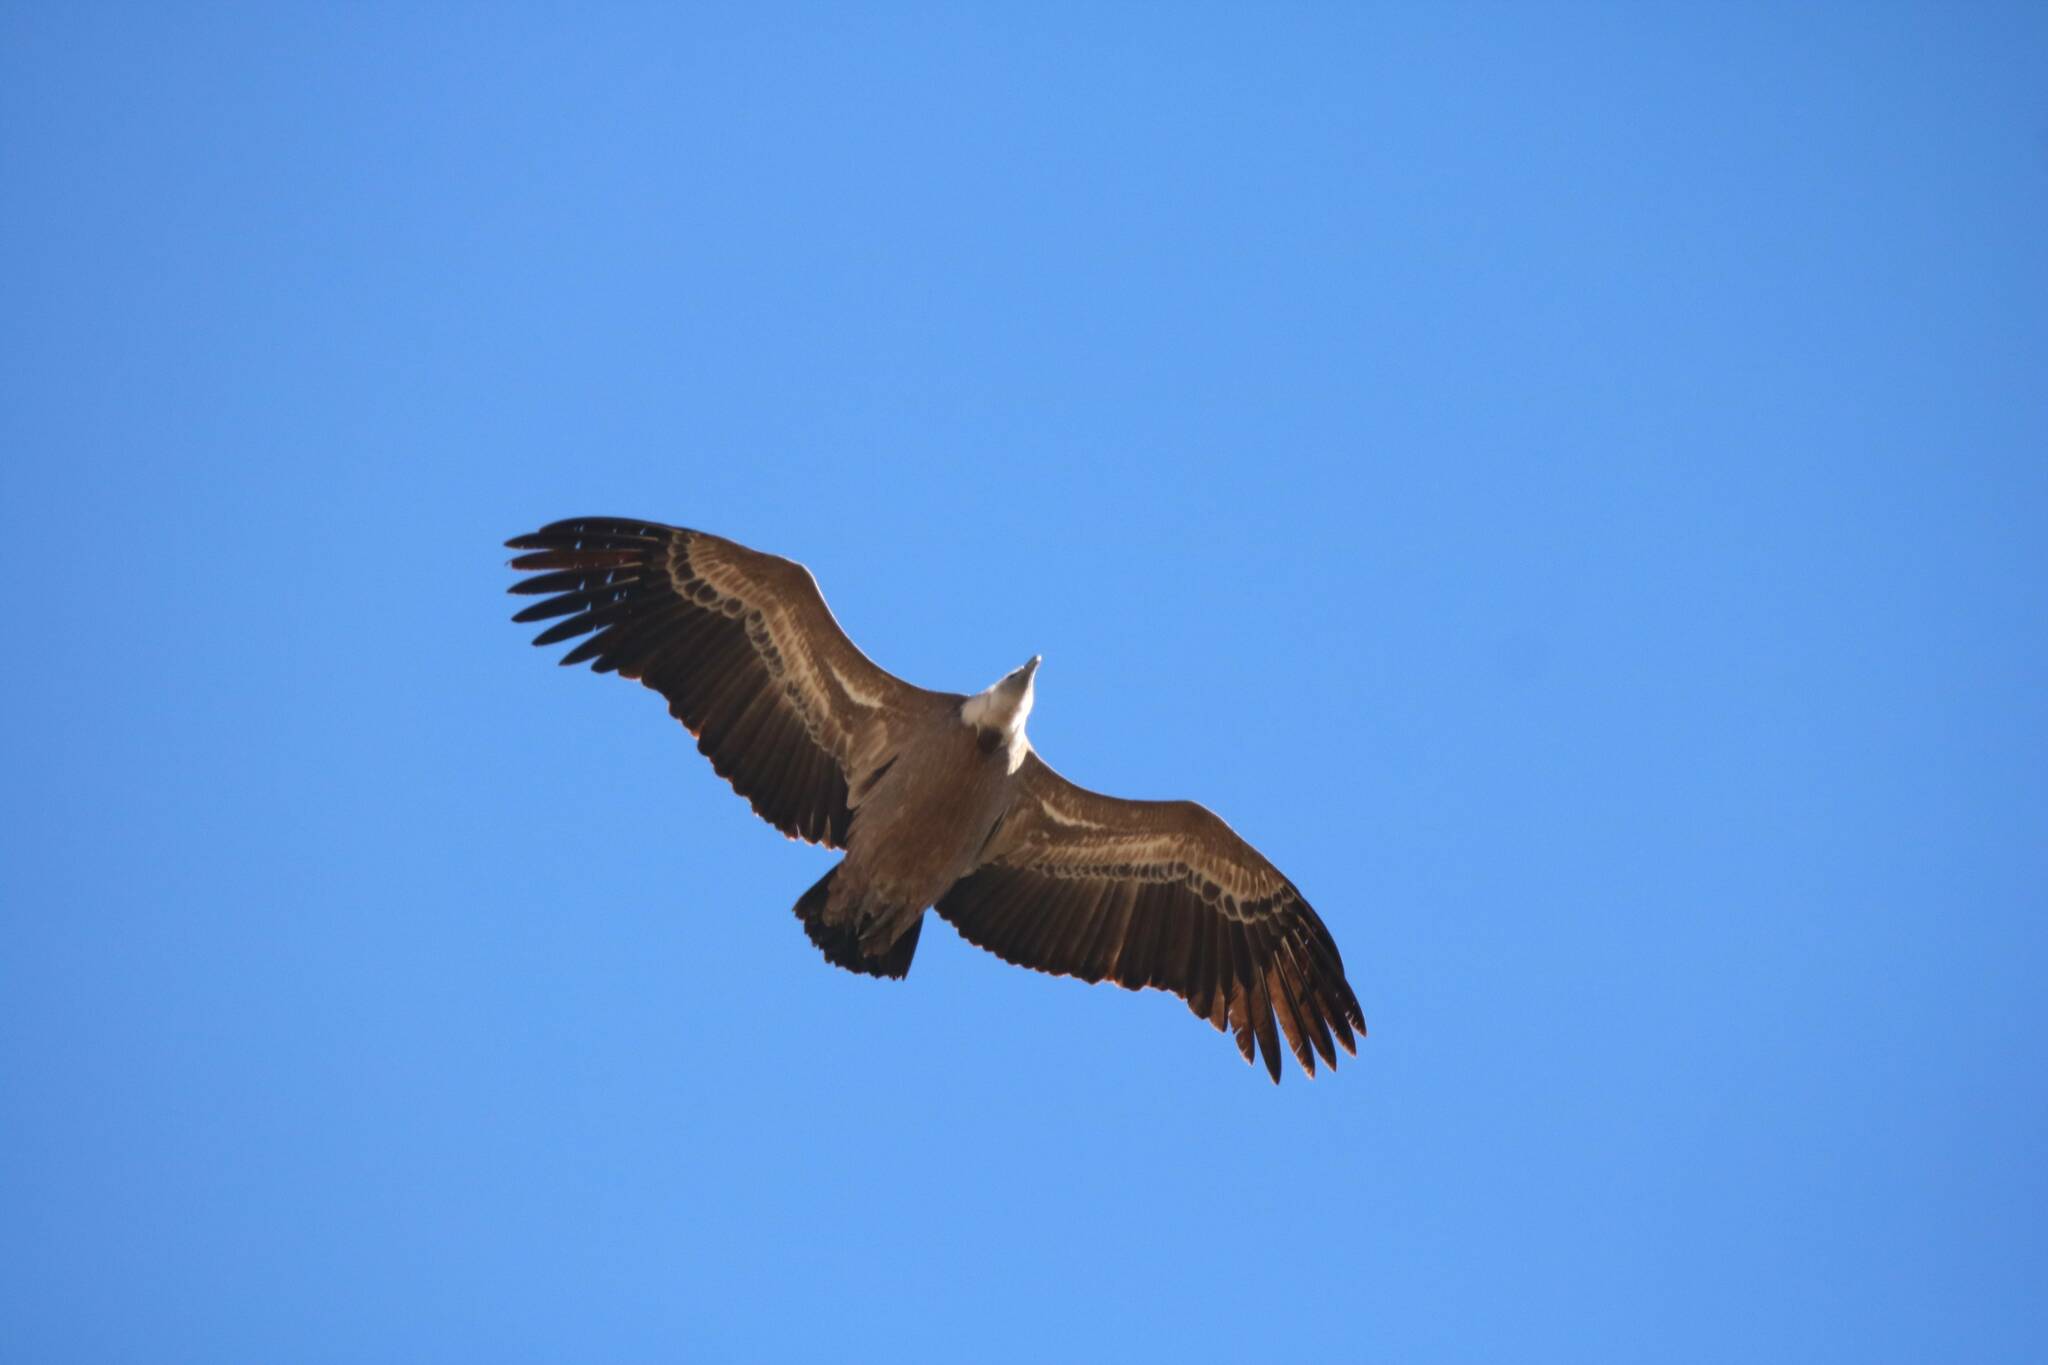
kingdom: Animalia
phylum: Chordata
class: Aves
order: Accipitriformes
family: Accipitridae
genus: Gyps
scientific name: Gyps fulvus
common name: Griffon vulture
